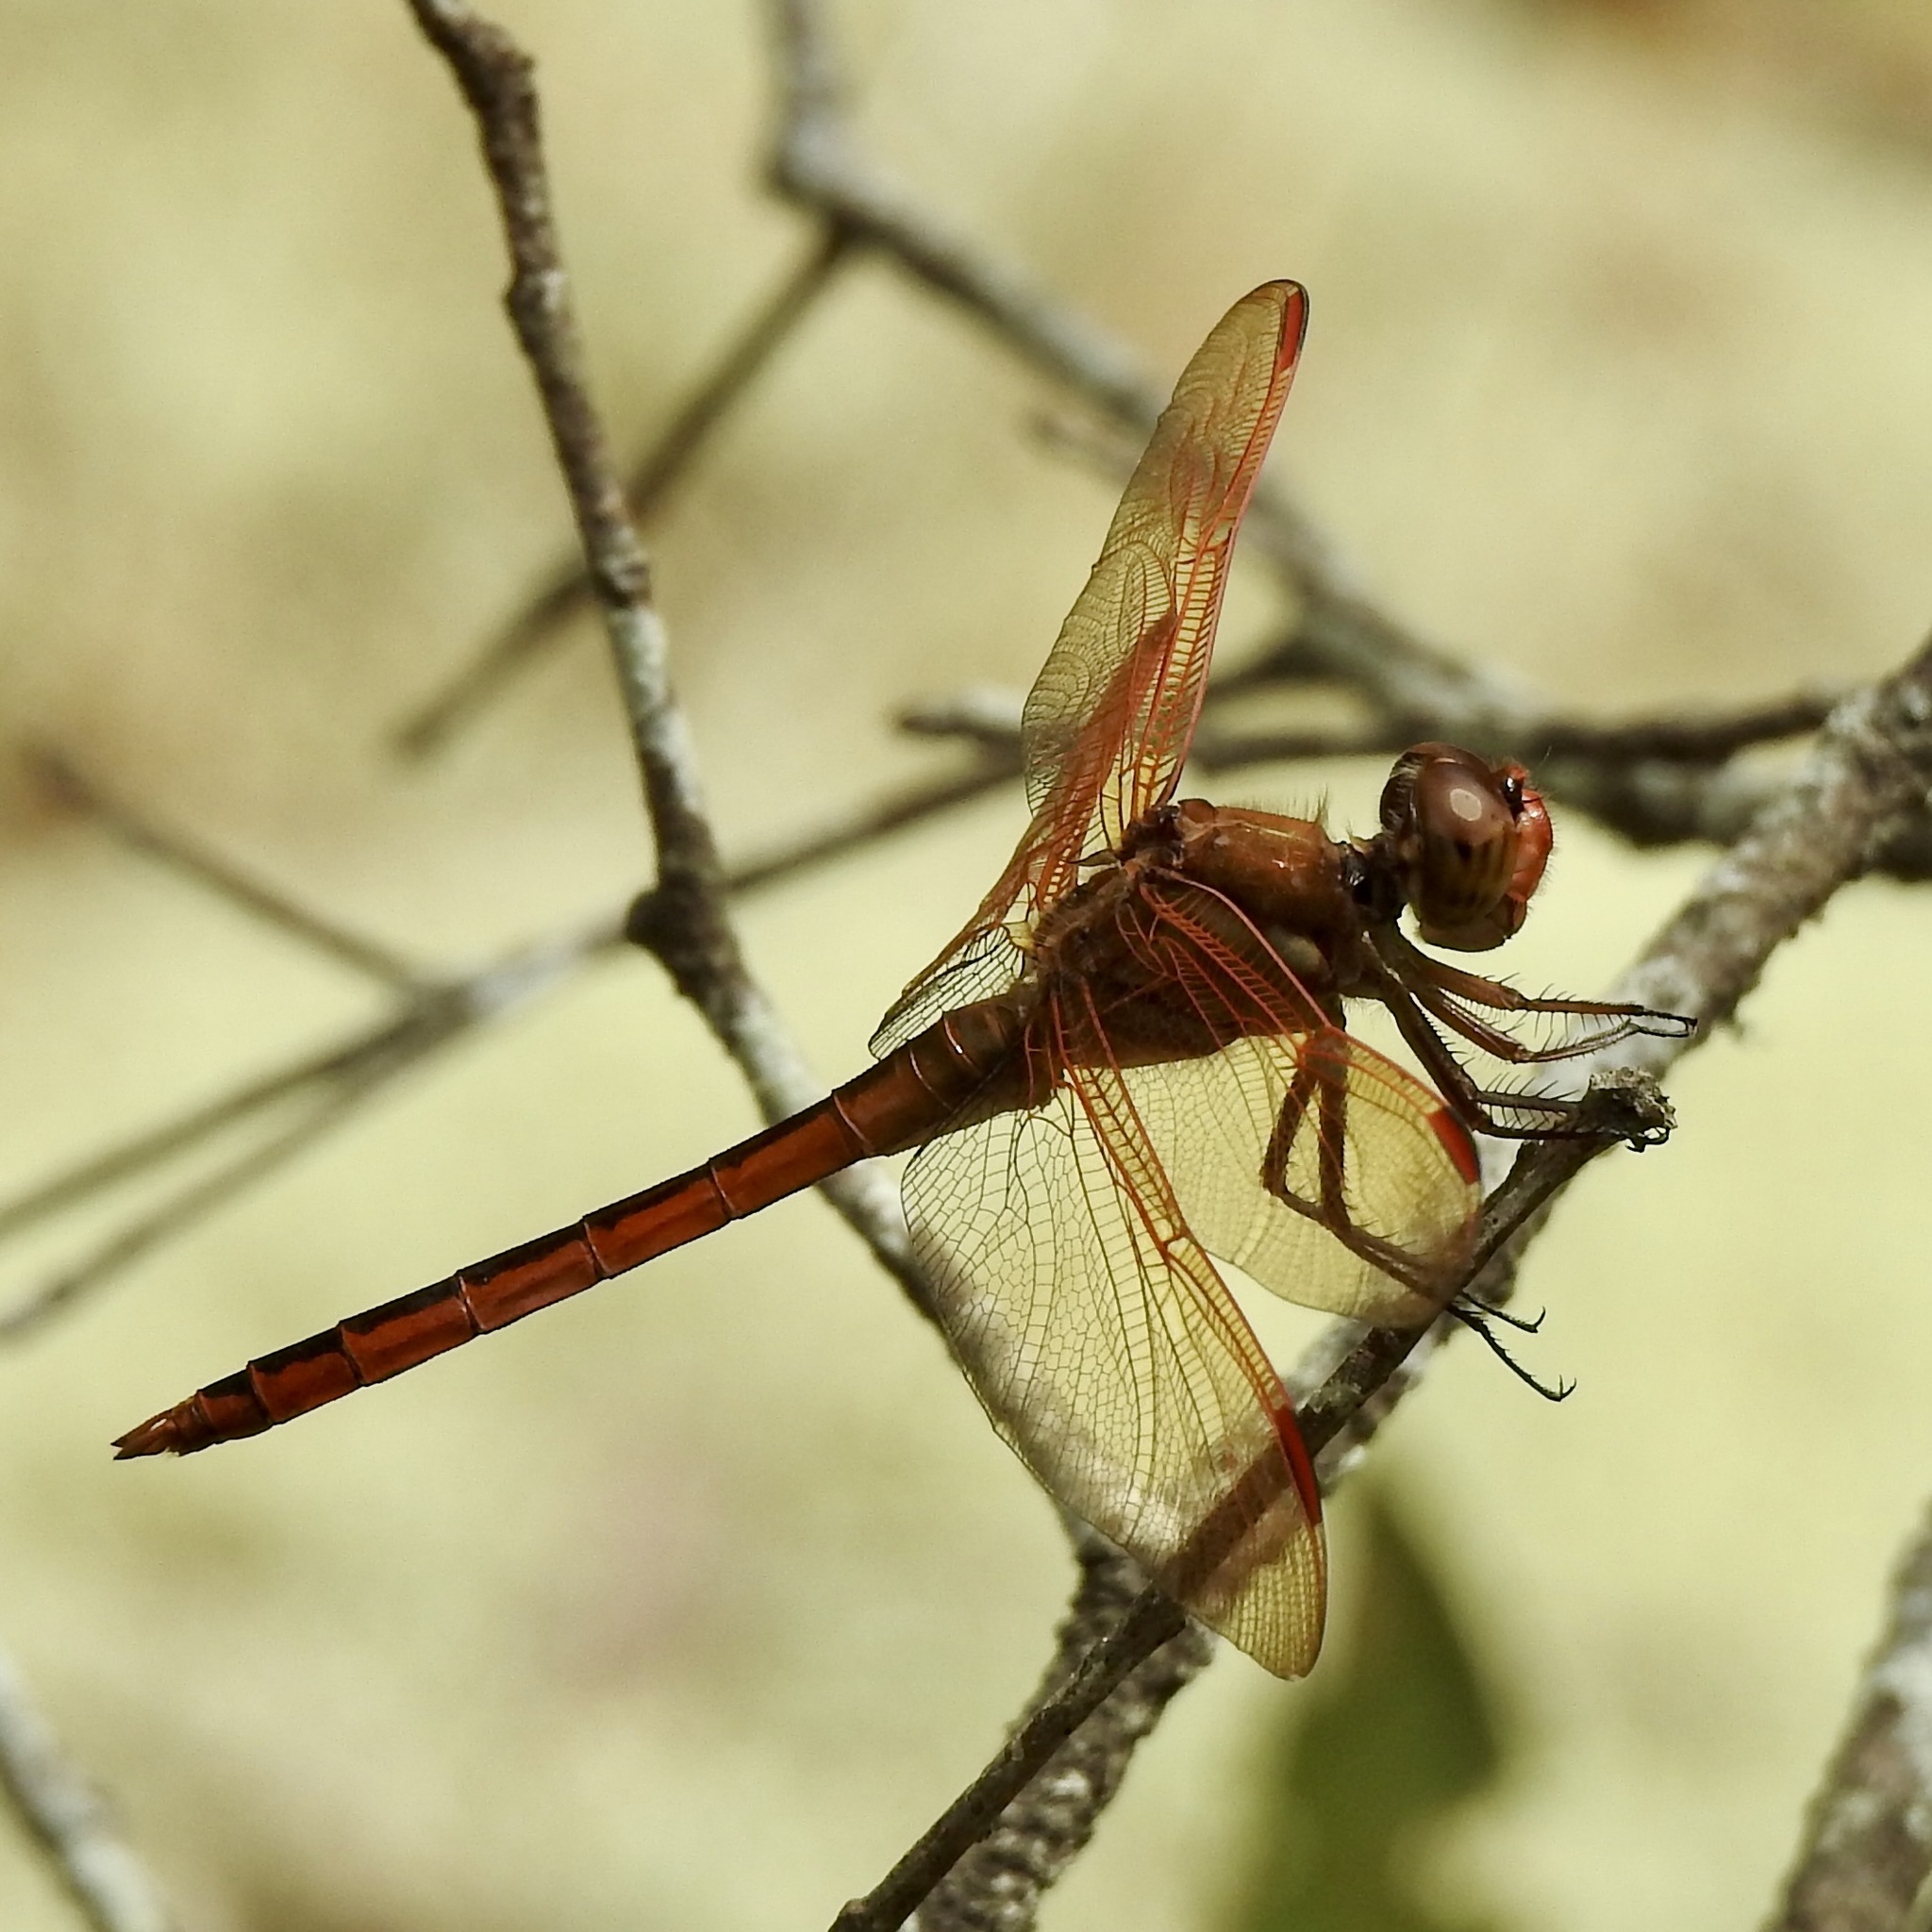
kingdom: Animalia
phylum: Arthropoda
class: Insecta
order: Odonata
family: Libellulidae
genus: Libellula
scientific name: Libellula auripennis
